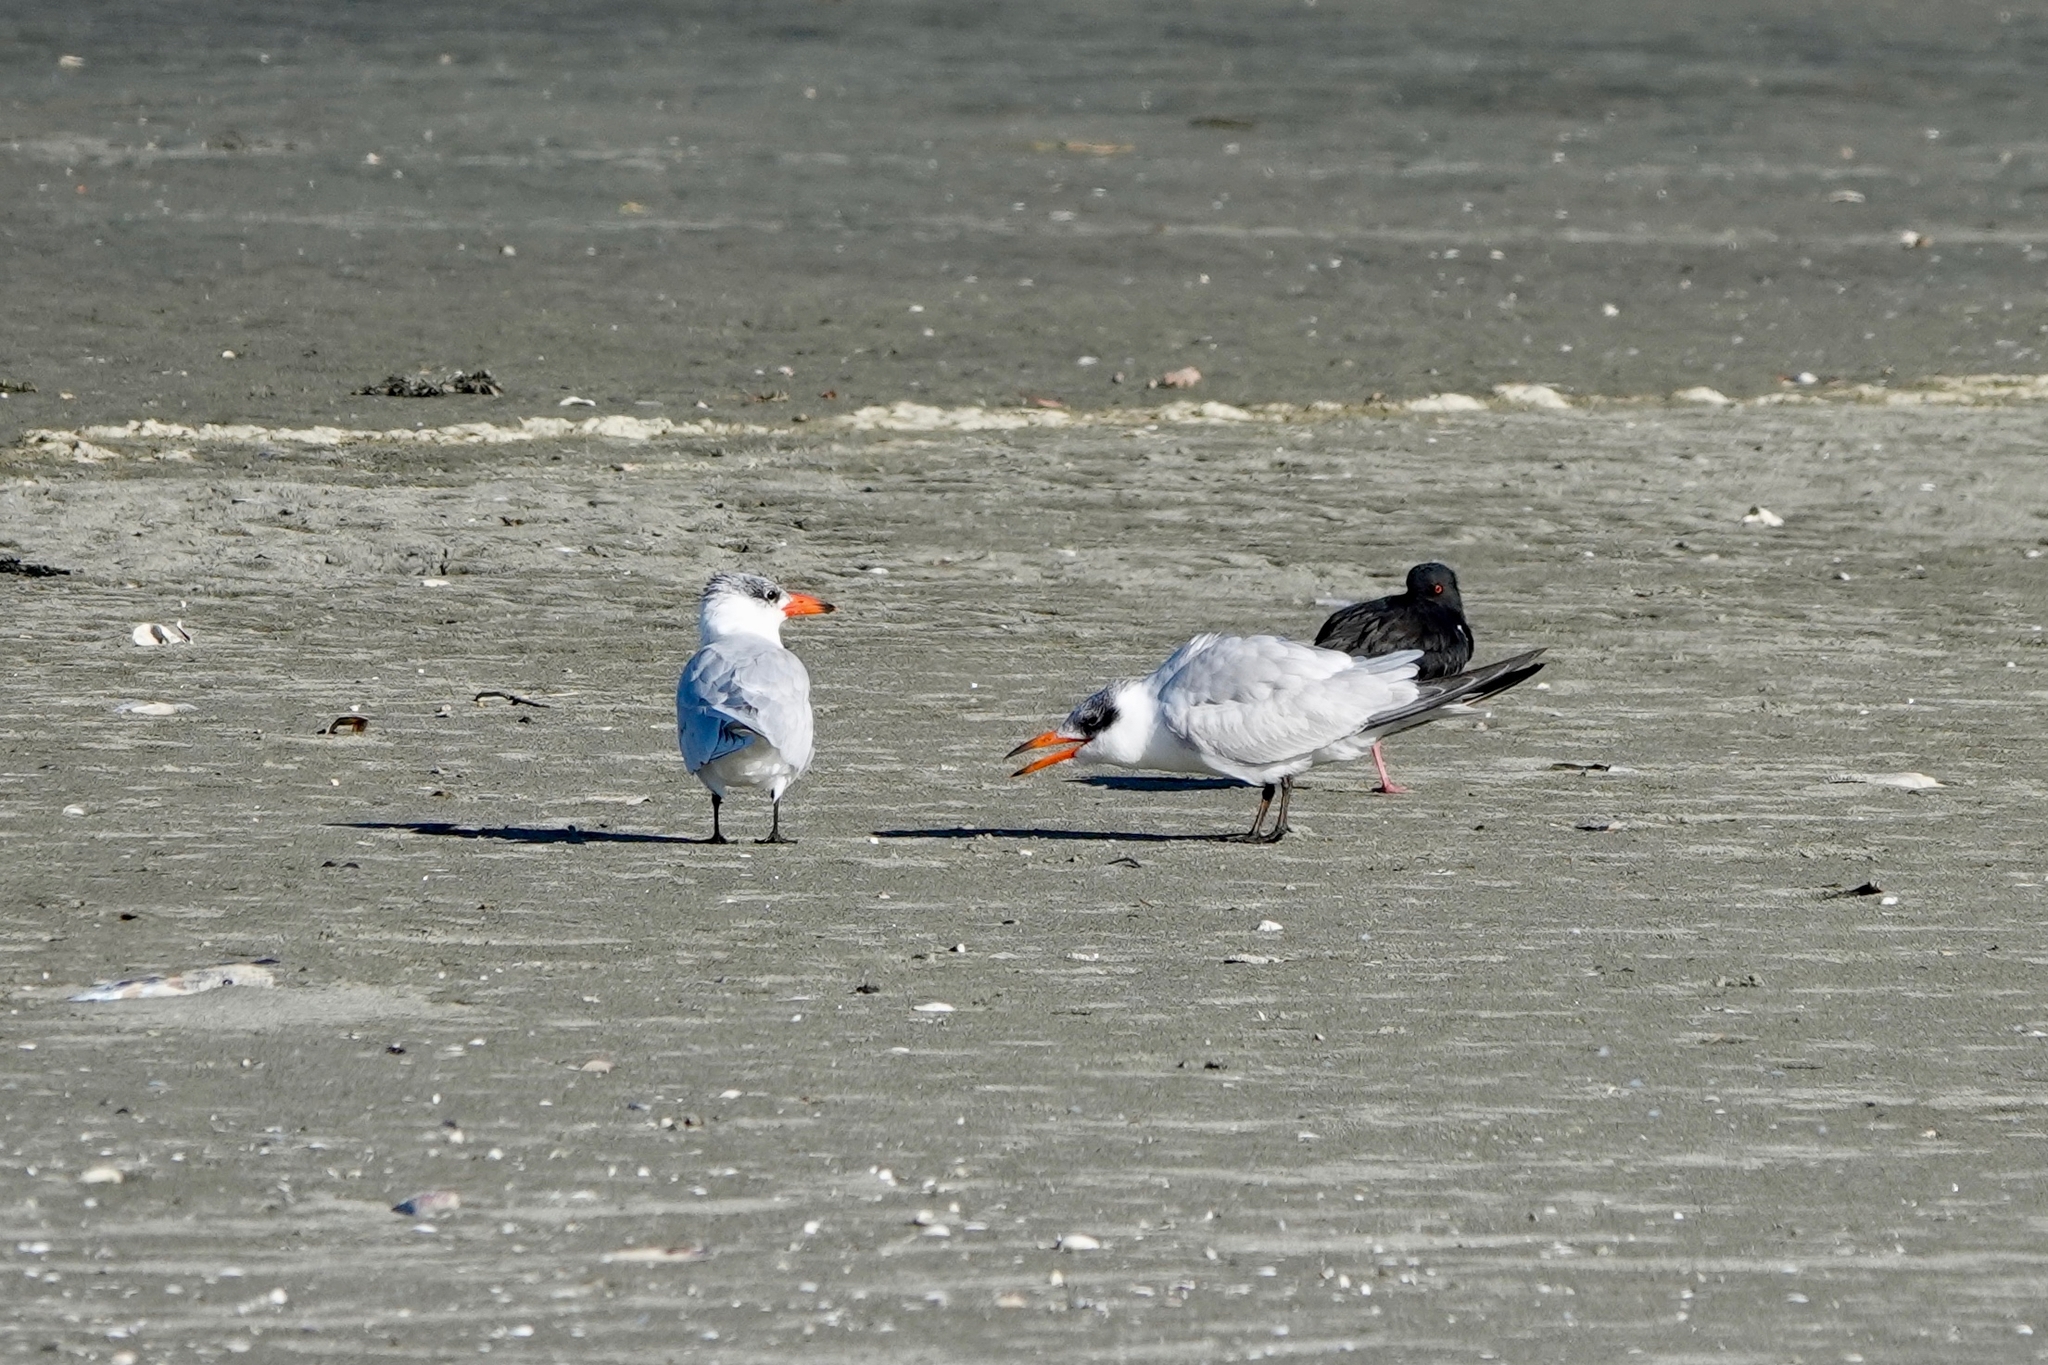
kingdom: Animalia
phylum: Chordata
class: Aves
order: Charadriiformes
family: Laridae
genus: Hydroprogne
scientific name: Hydroprogne caspia
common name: Caspian tern
